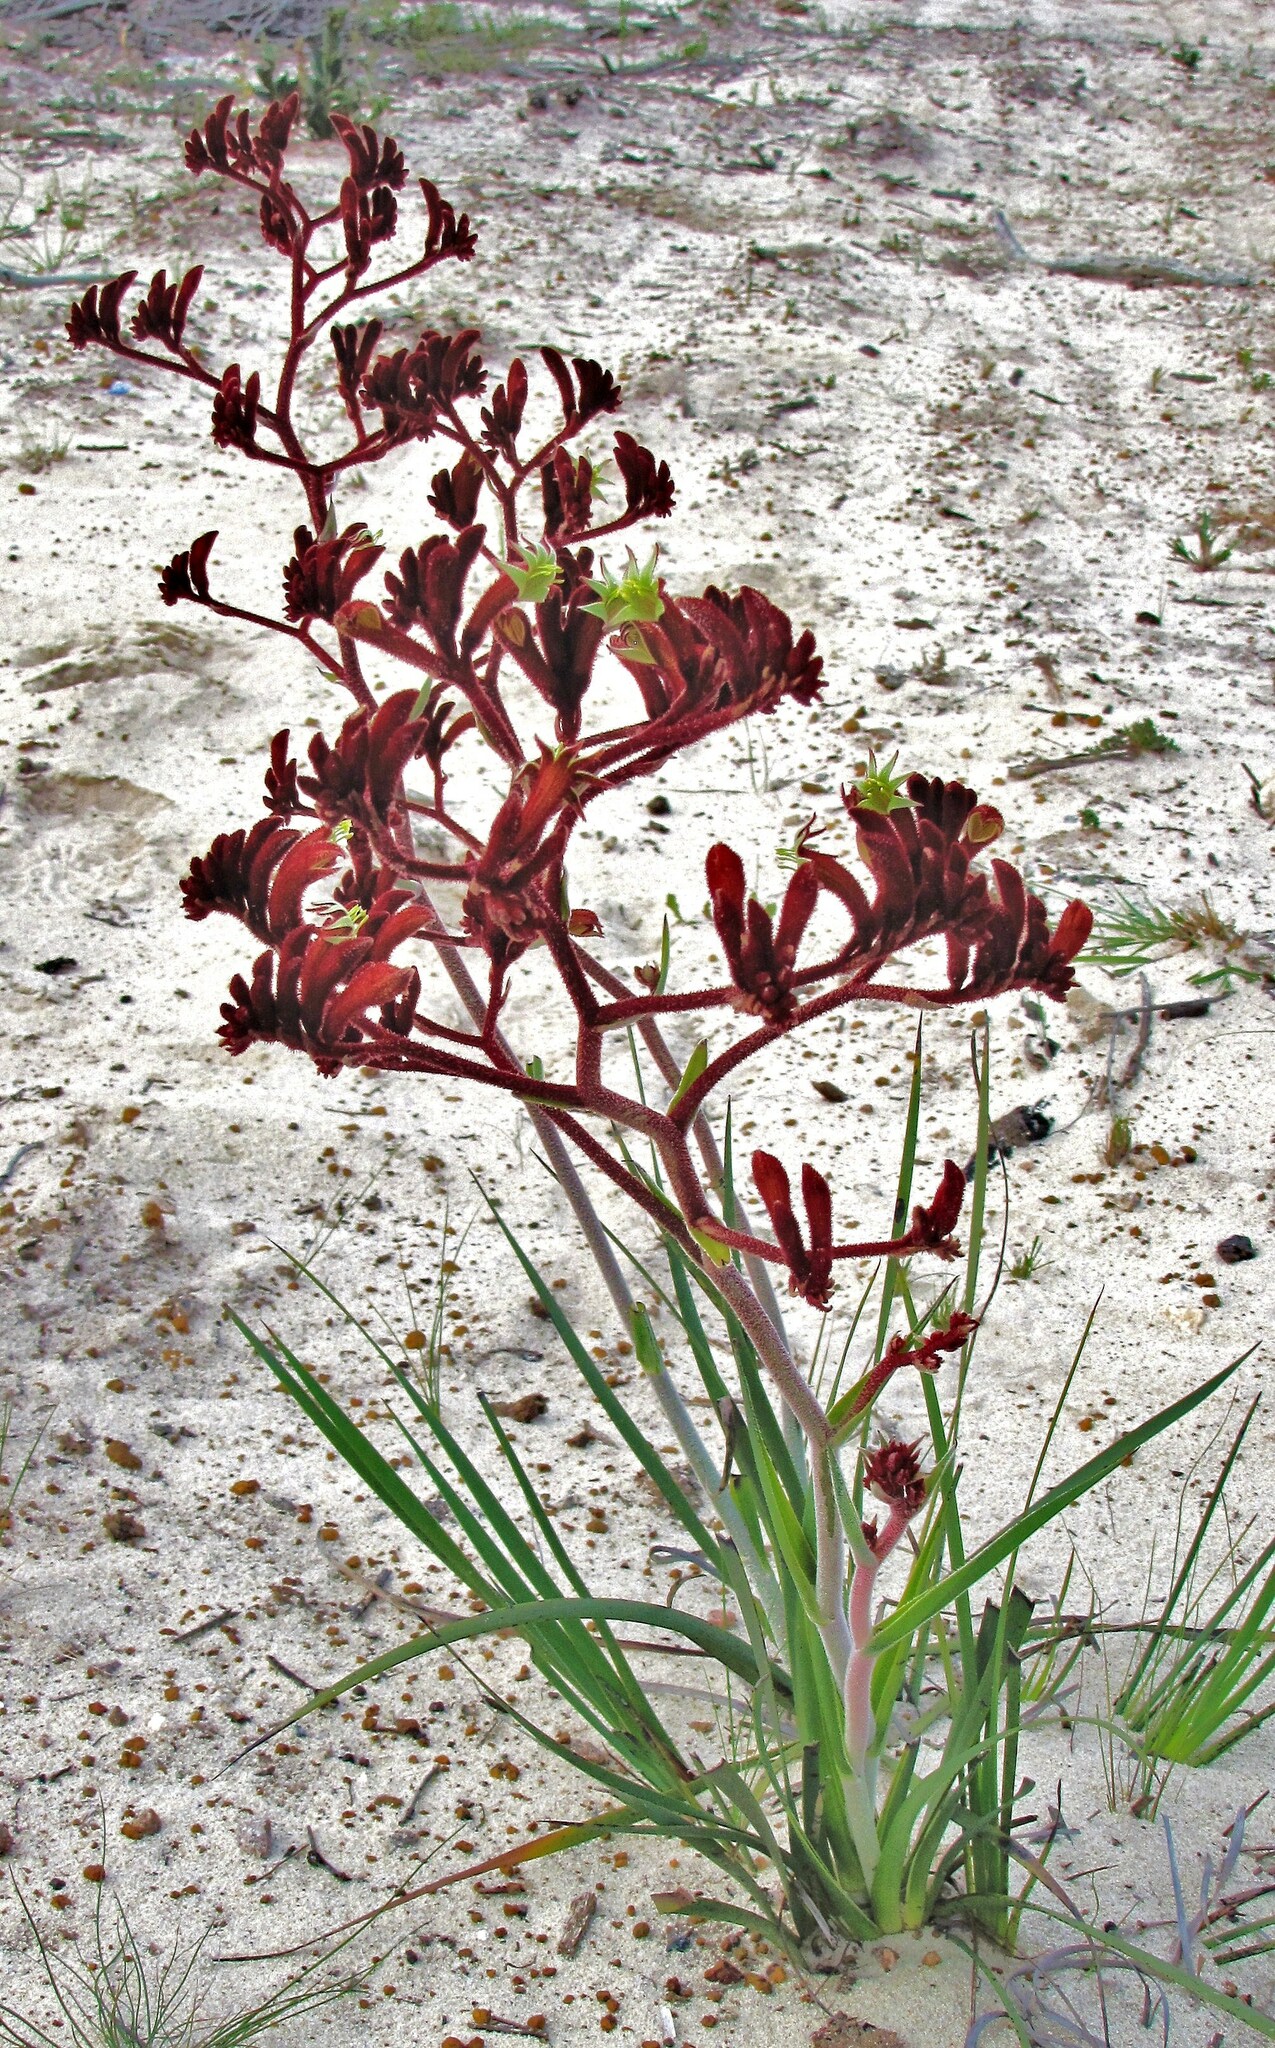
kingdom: Plantae
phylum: Tracheophyta
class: Liliopsida
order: Commelinales
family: Haemodoraceae
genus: Anigozanthos
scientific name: Anigozanthos rufus
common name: Red kangaroo-paw
